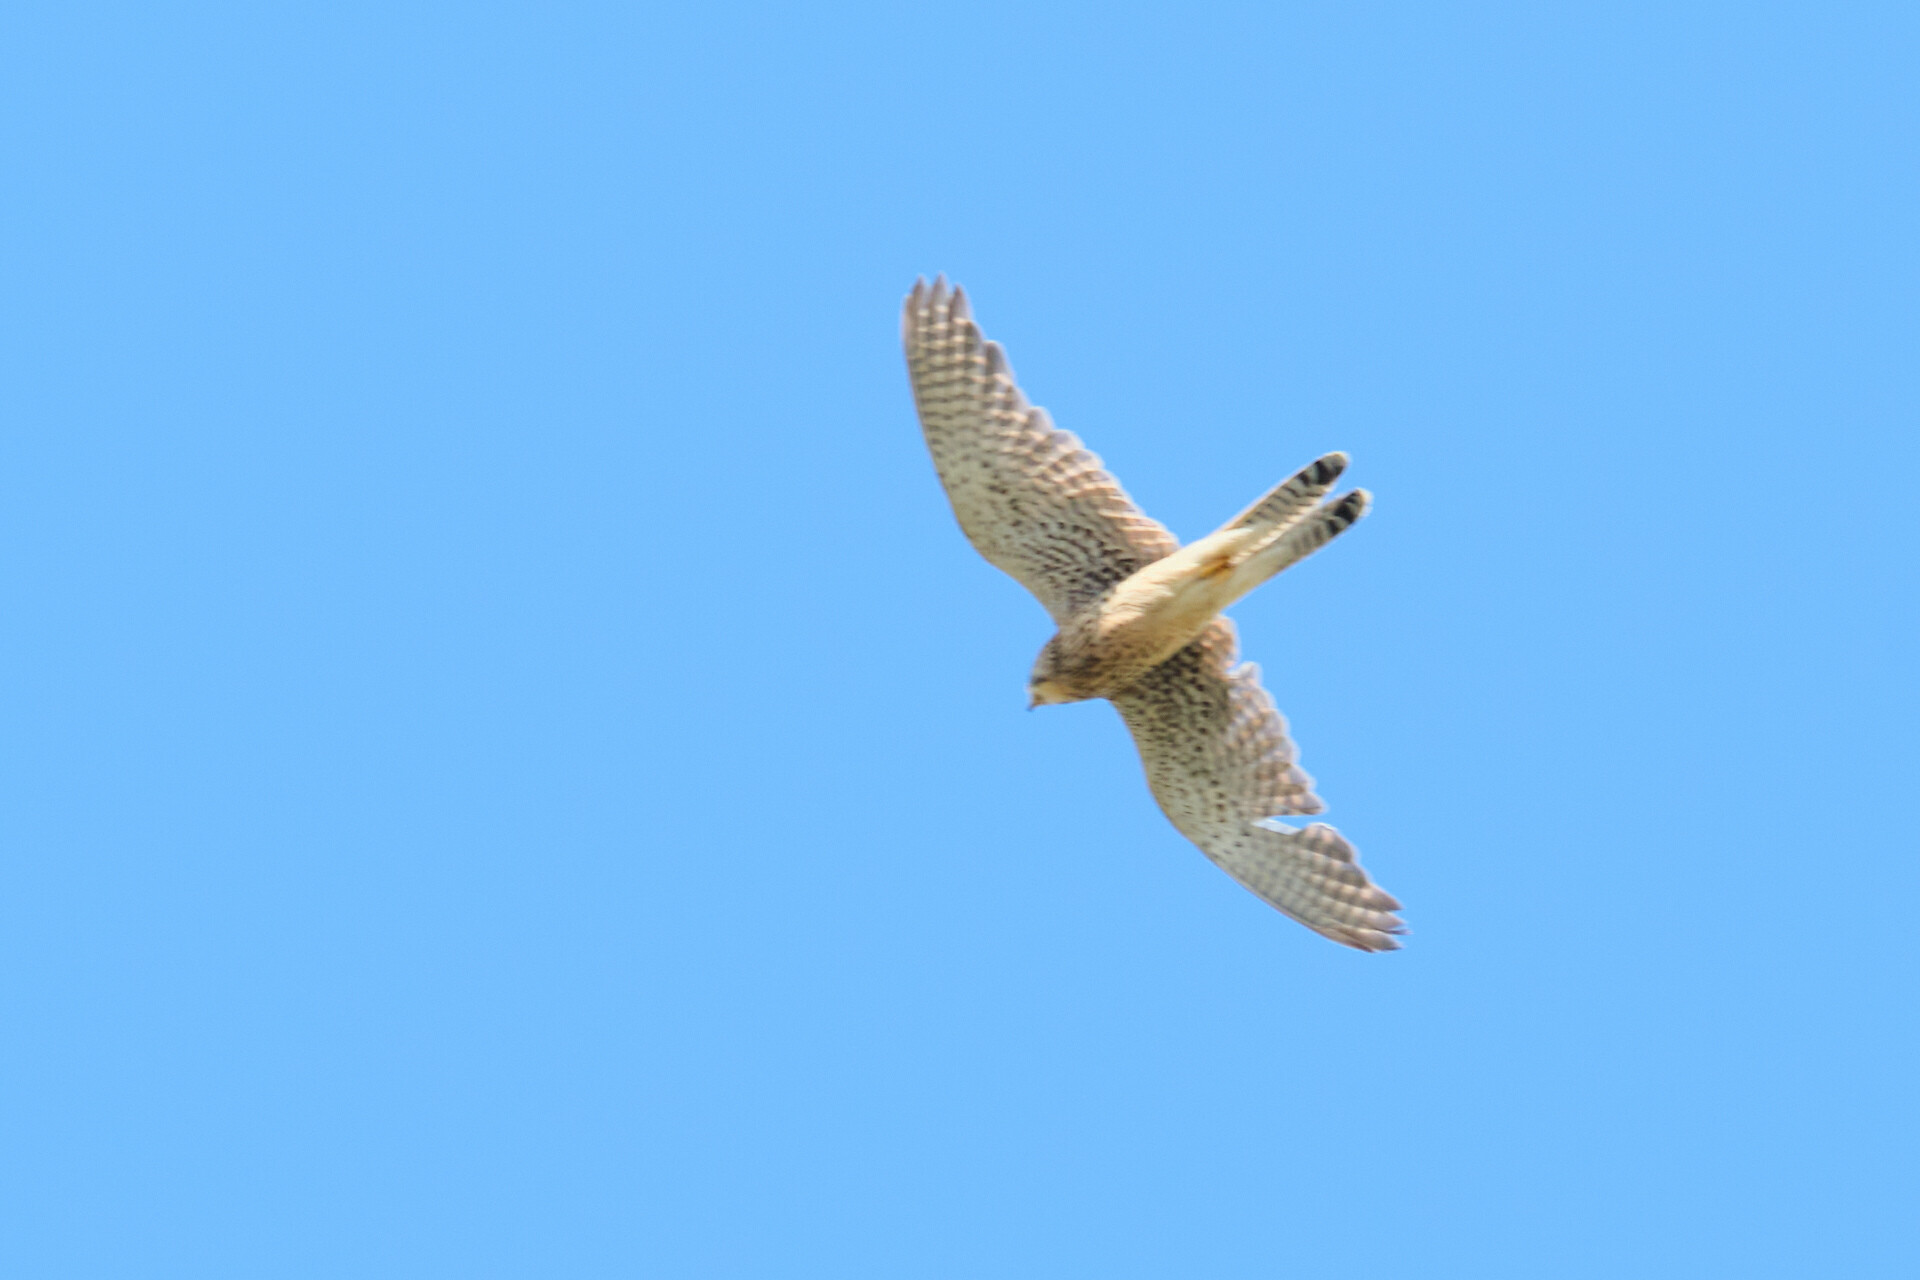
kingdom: Animalia
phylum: Chordata
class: Aves
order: Falconiformes
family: Falconidae
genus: Falco
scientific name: Falco tinnunculus
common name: Common kestrel
